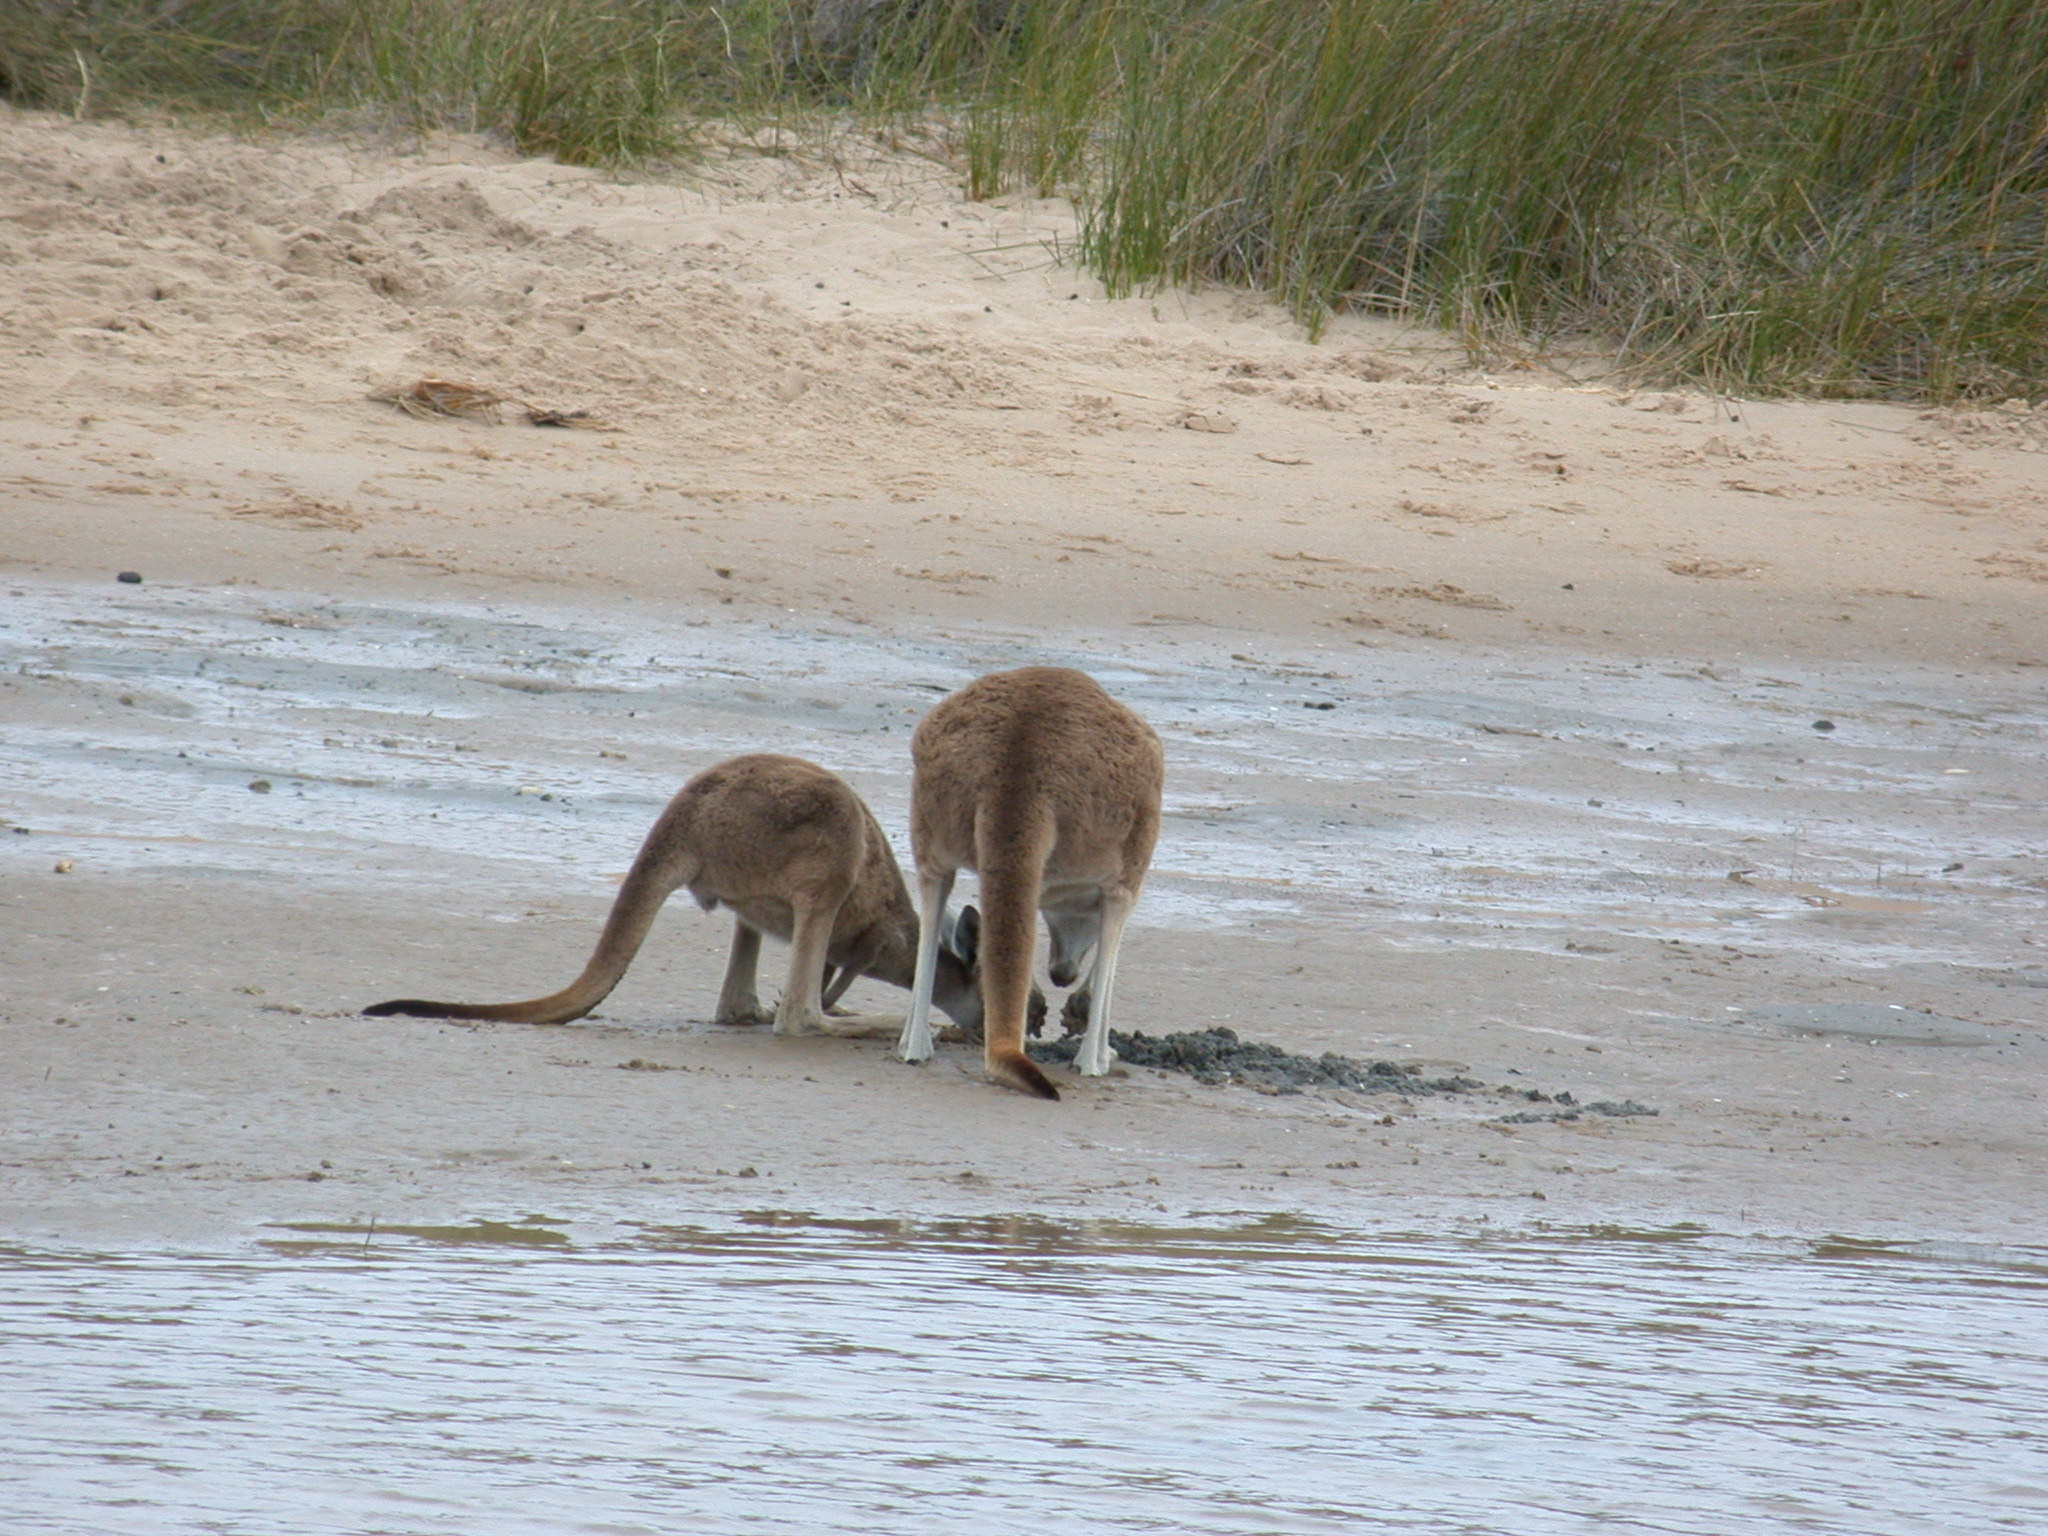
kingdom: Animalia
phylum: Chordata
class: Mammalia
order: Diprotodontia
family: Macropodidae
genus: Macropus
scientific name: Macropus fuliginosus
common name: Western grey kangaroo
